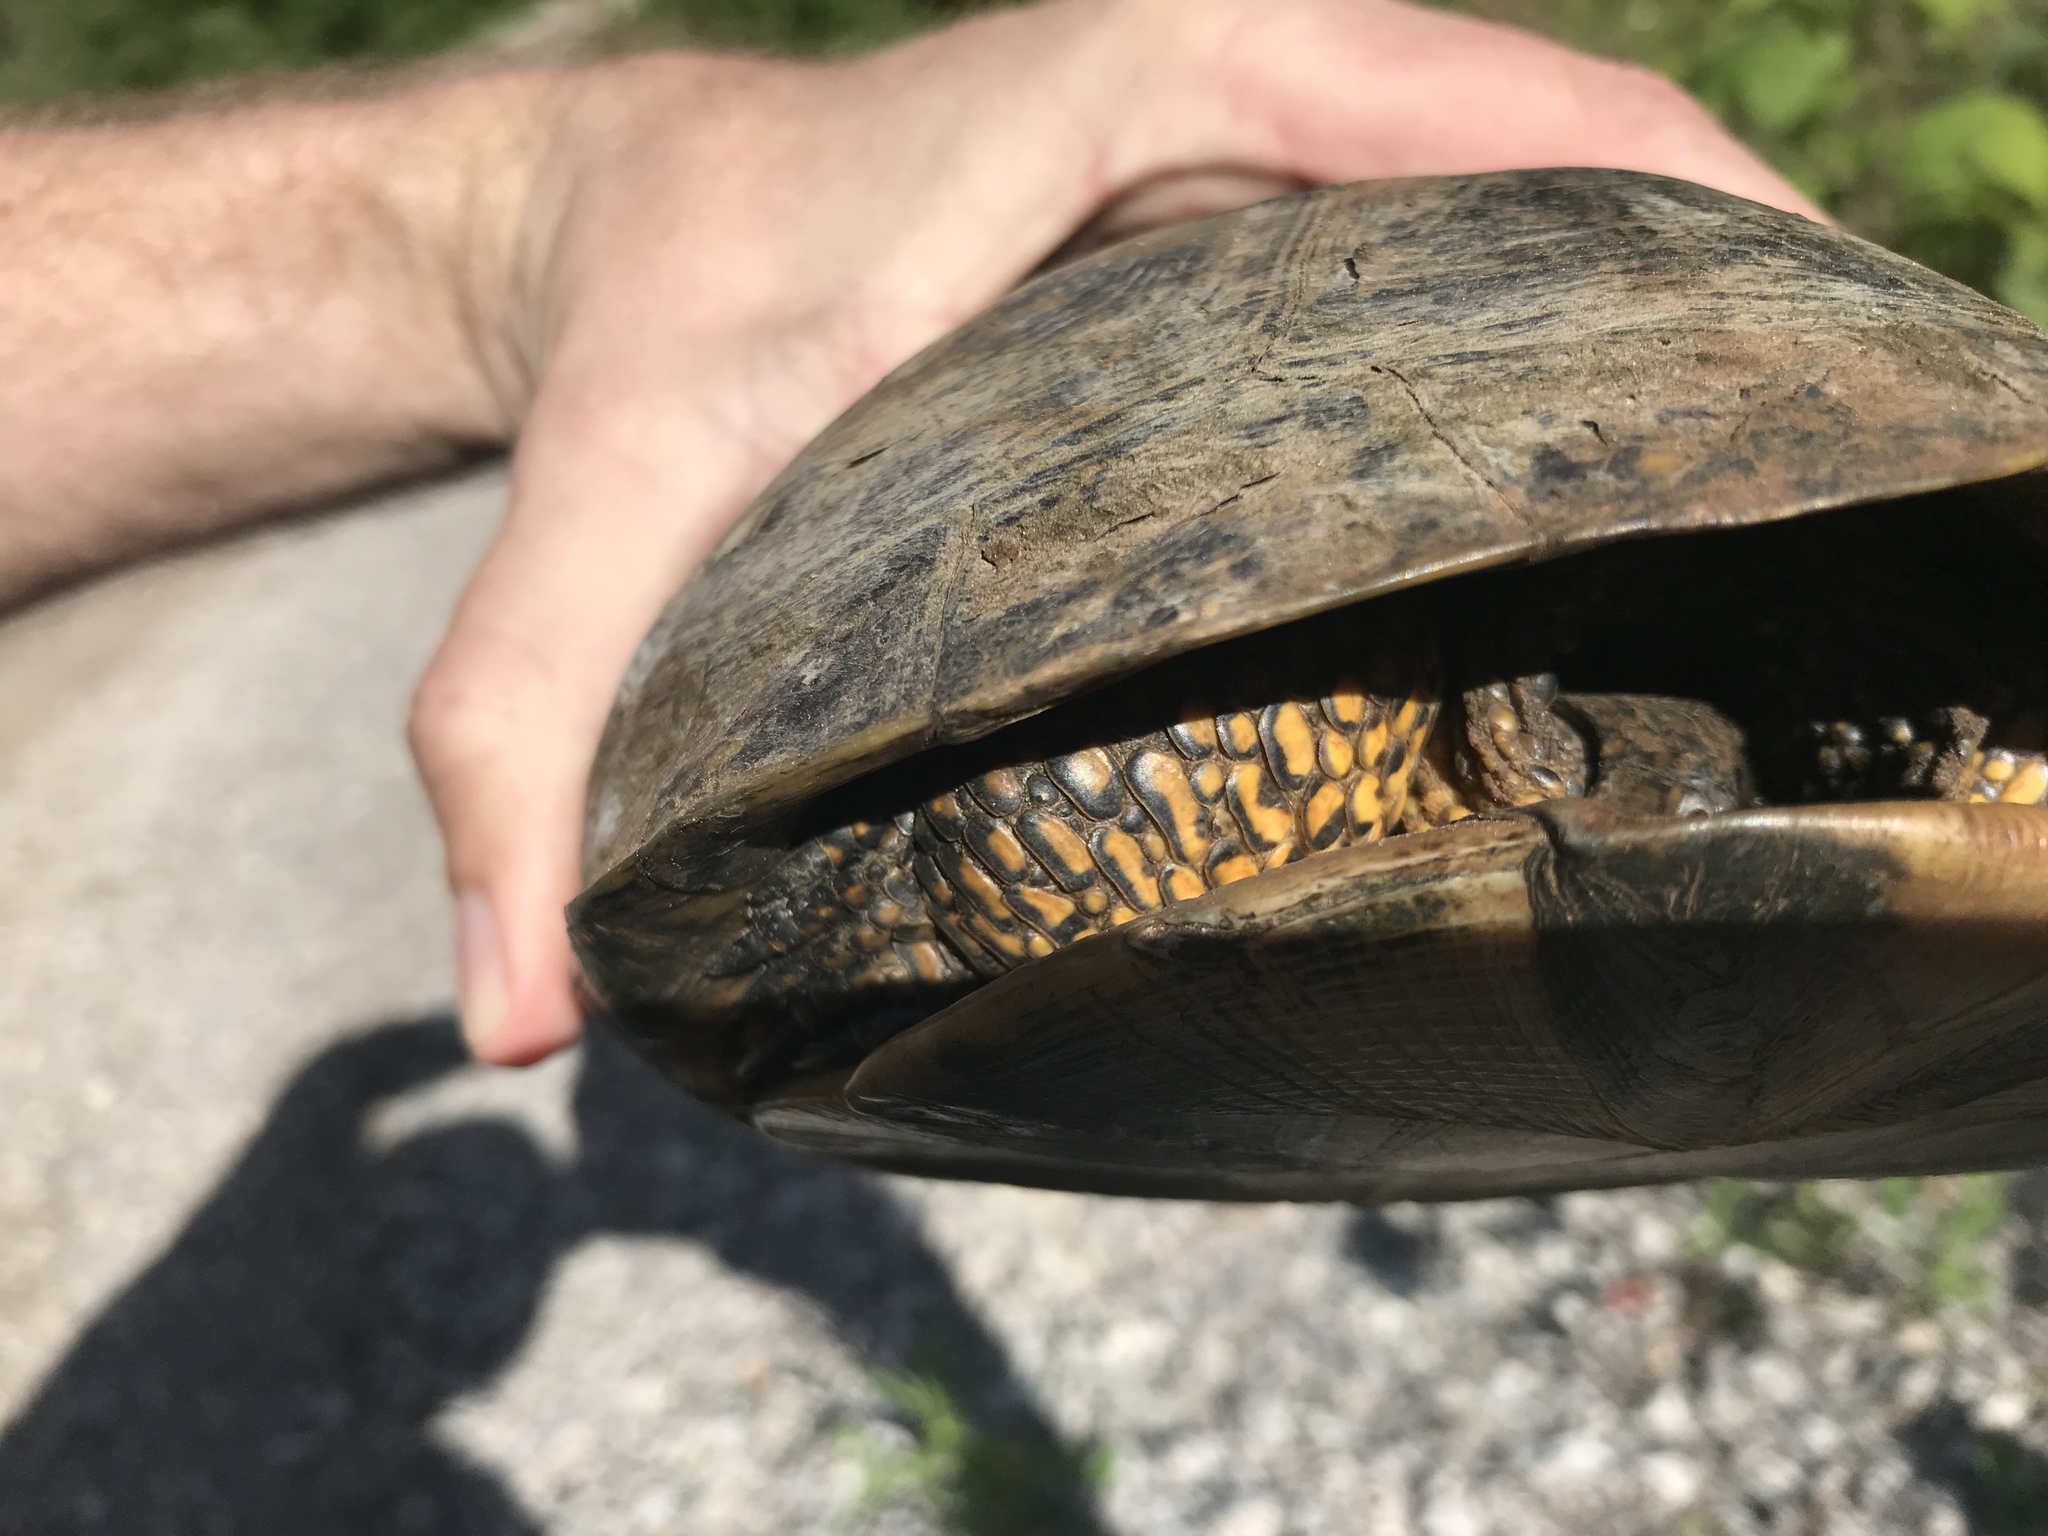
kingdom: Animalia
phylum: Chordata
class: Testudines
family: Emydidae
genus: Emys
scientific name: Emys blandingii
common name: Blanding's turtle
